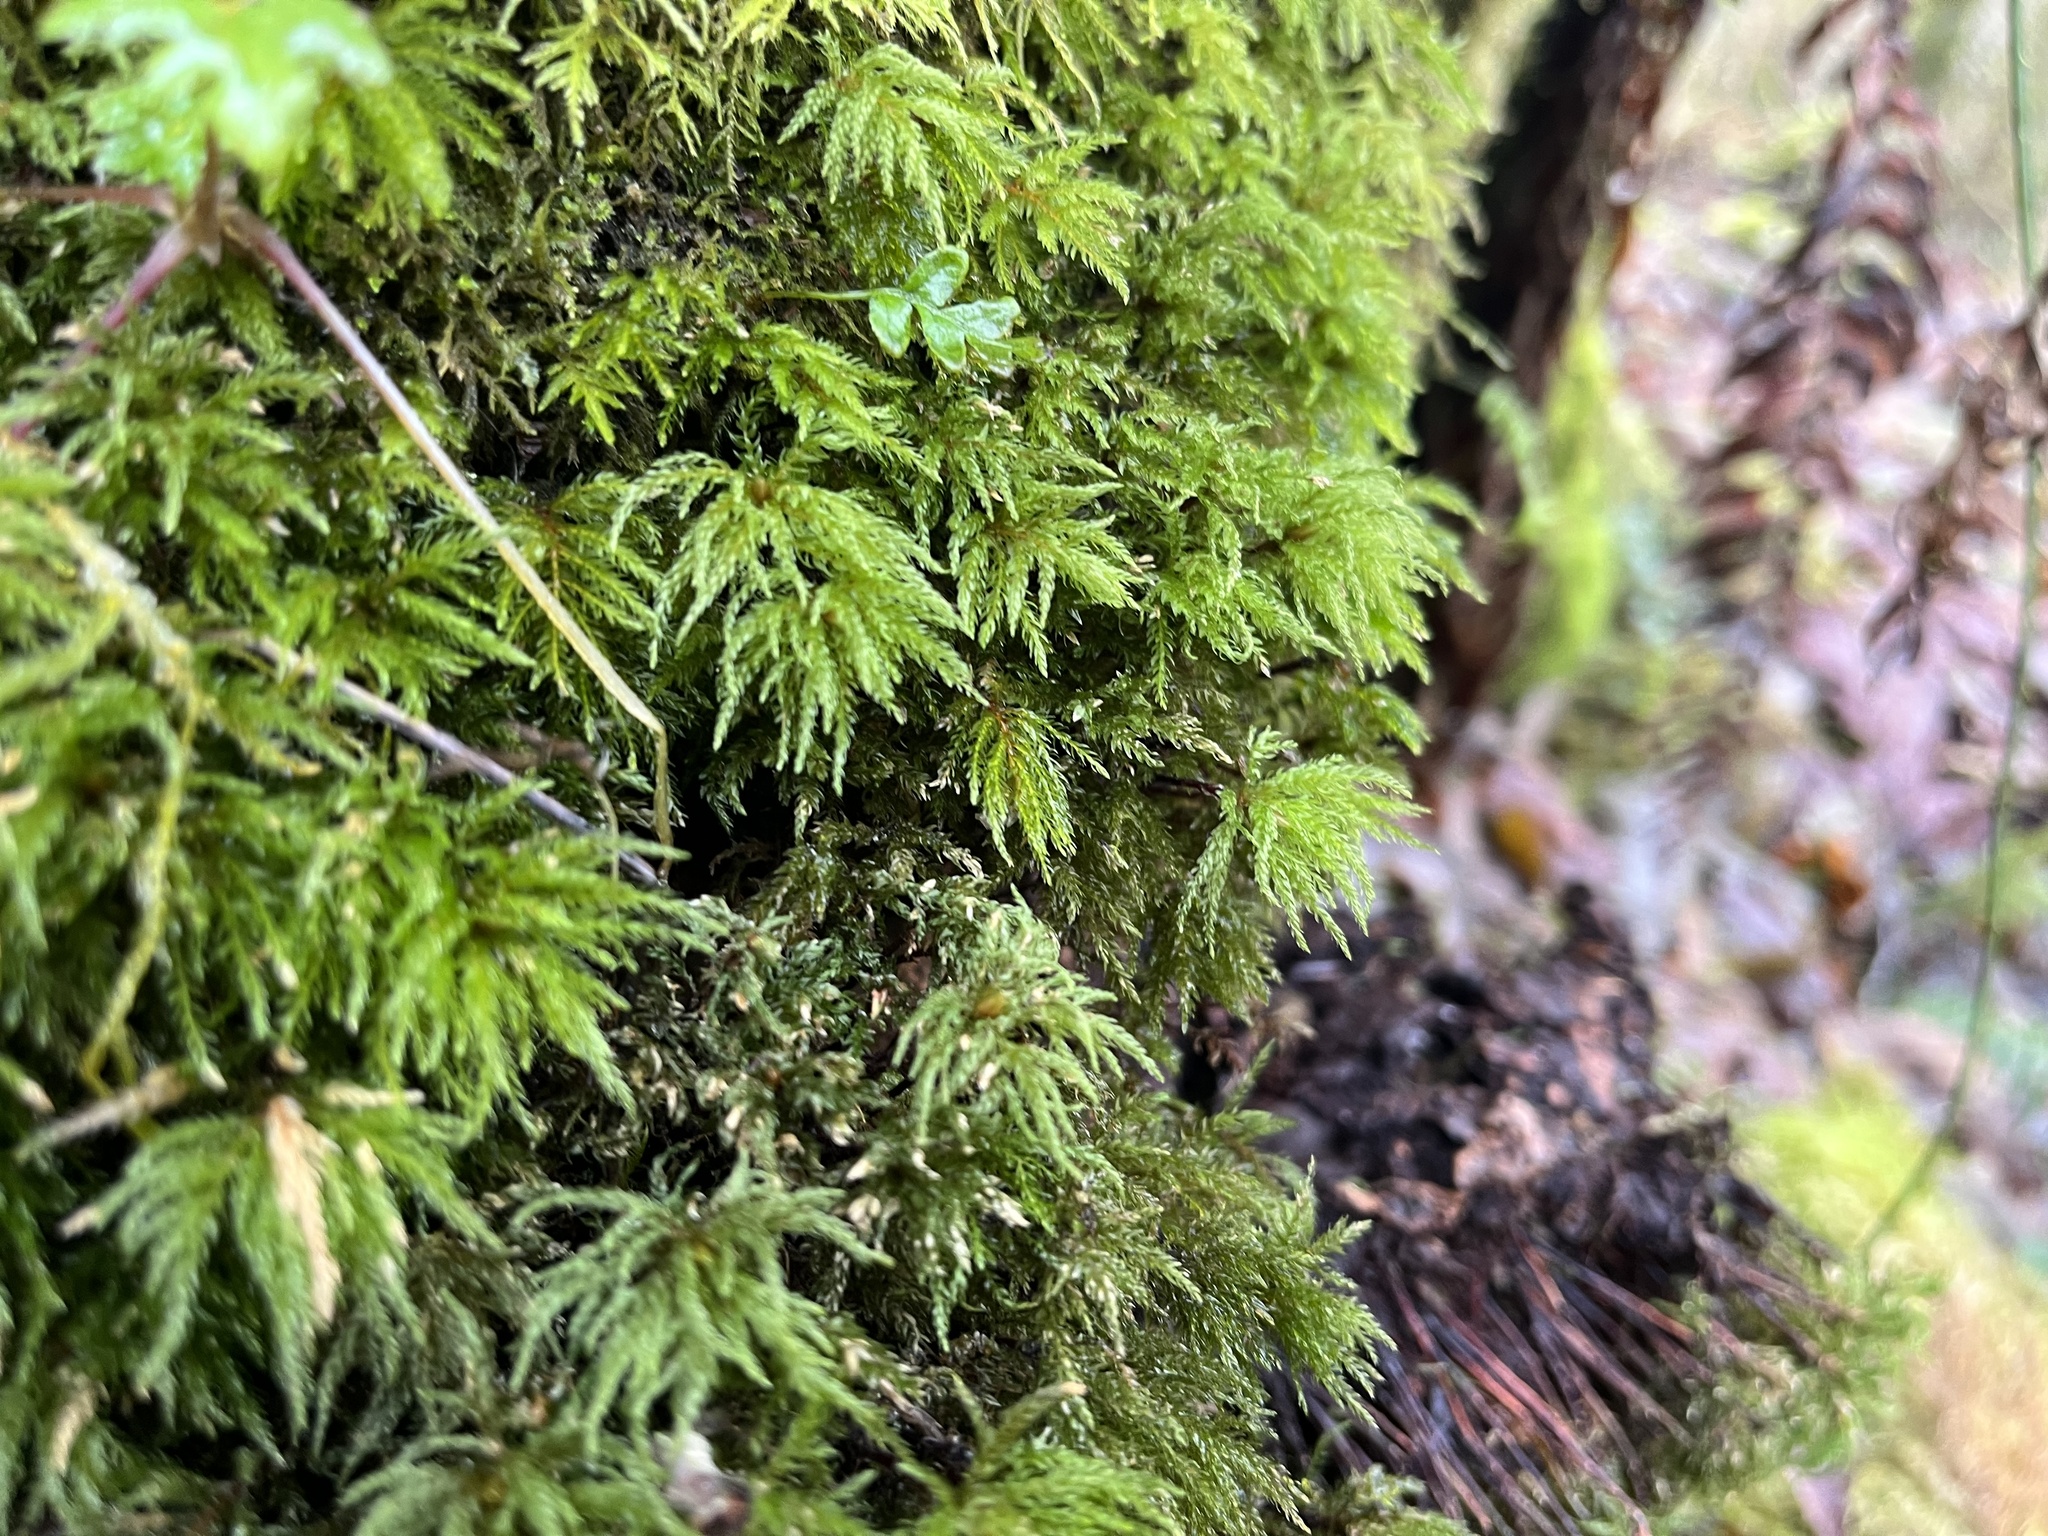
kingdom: Plantae
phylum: Bryophyta
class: Bryopsida
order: Bryales
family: Mniaceae
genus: Leucolepis
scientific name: Leucolepis acanthoneura
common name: Leucolepis umbrella moss
